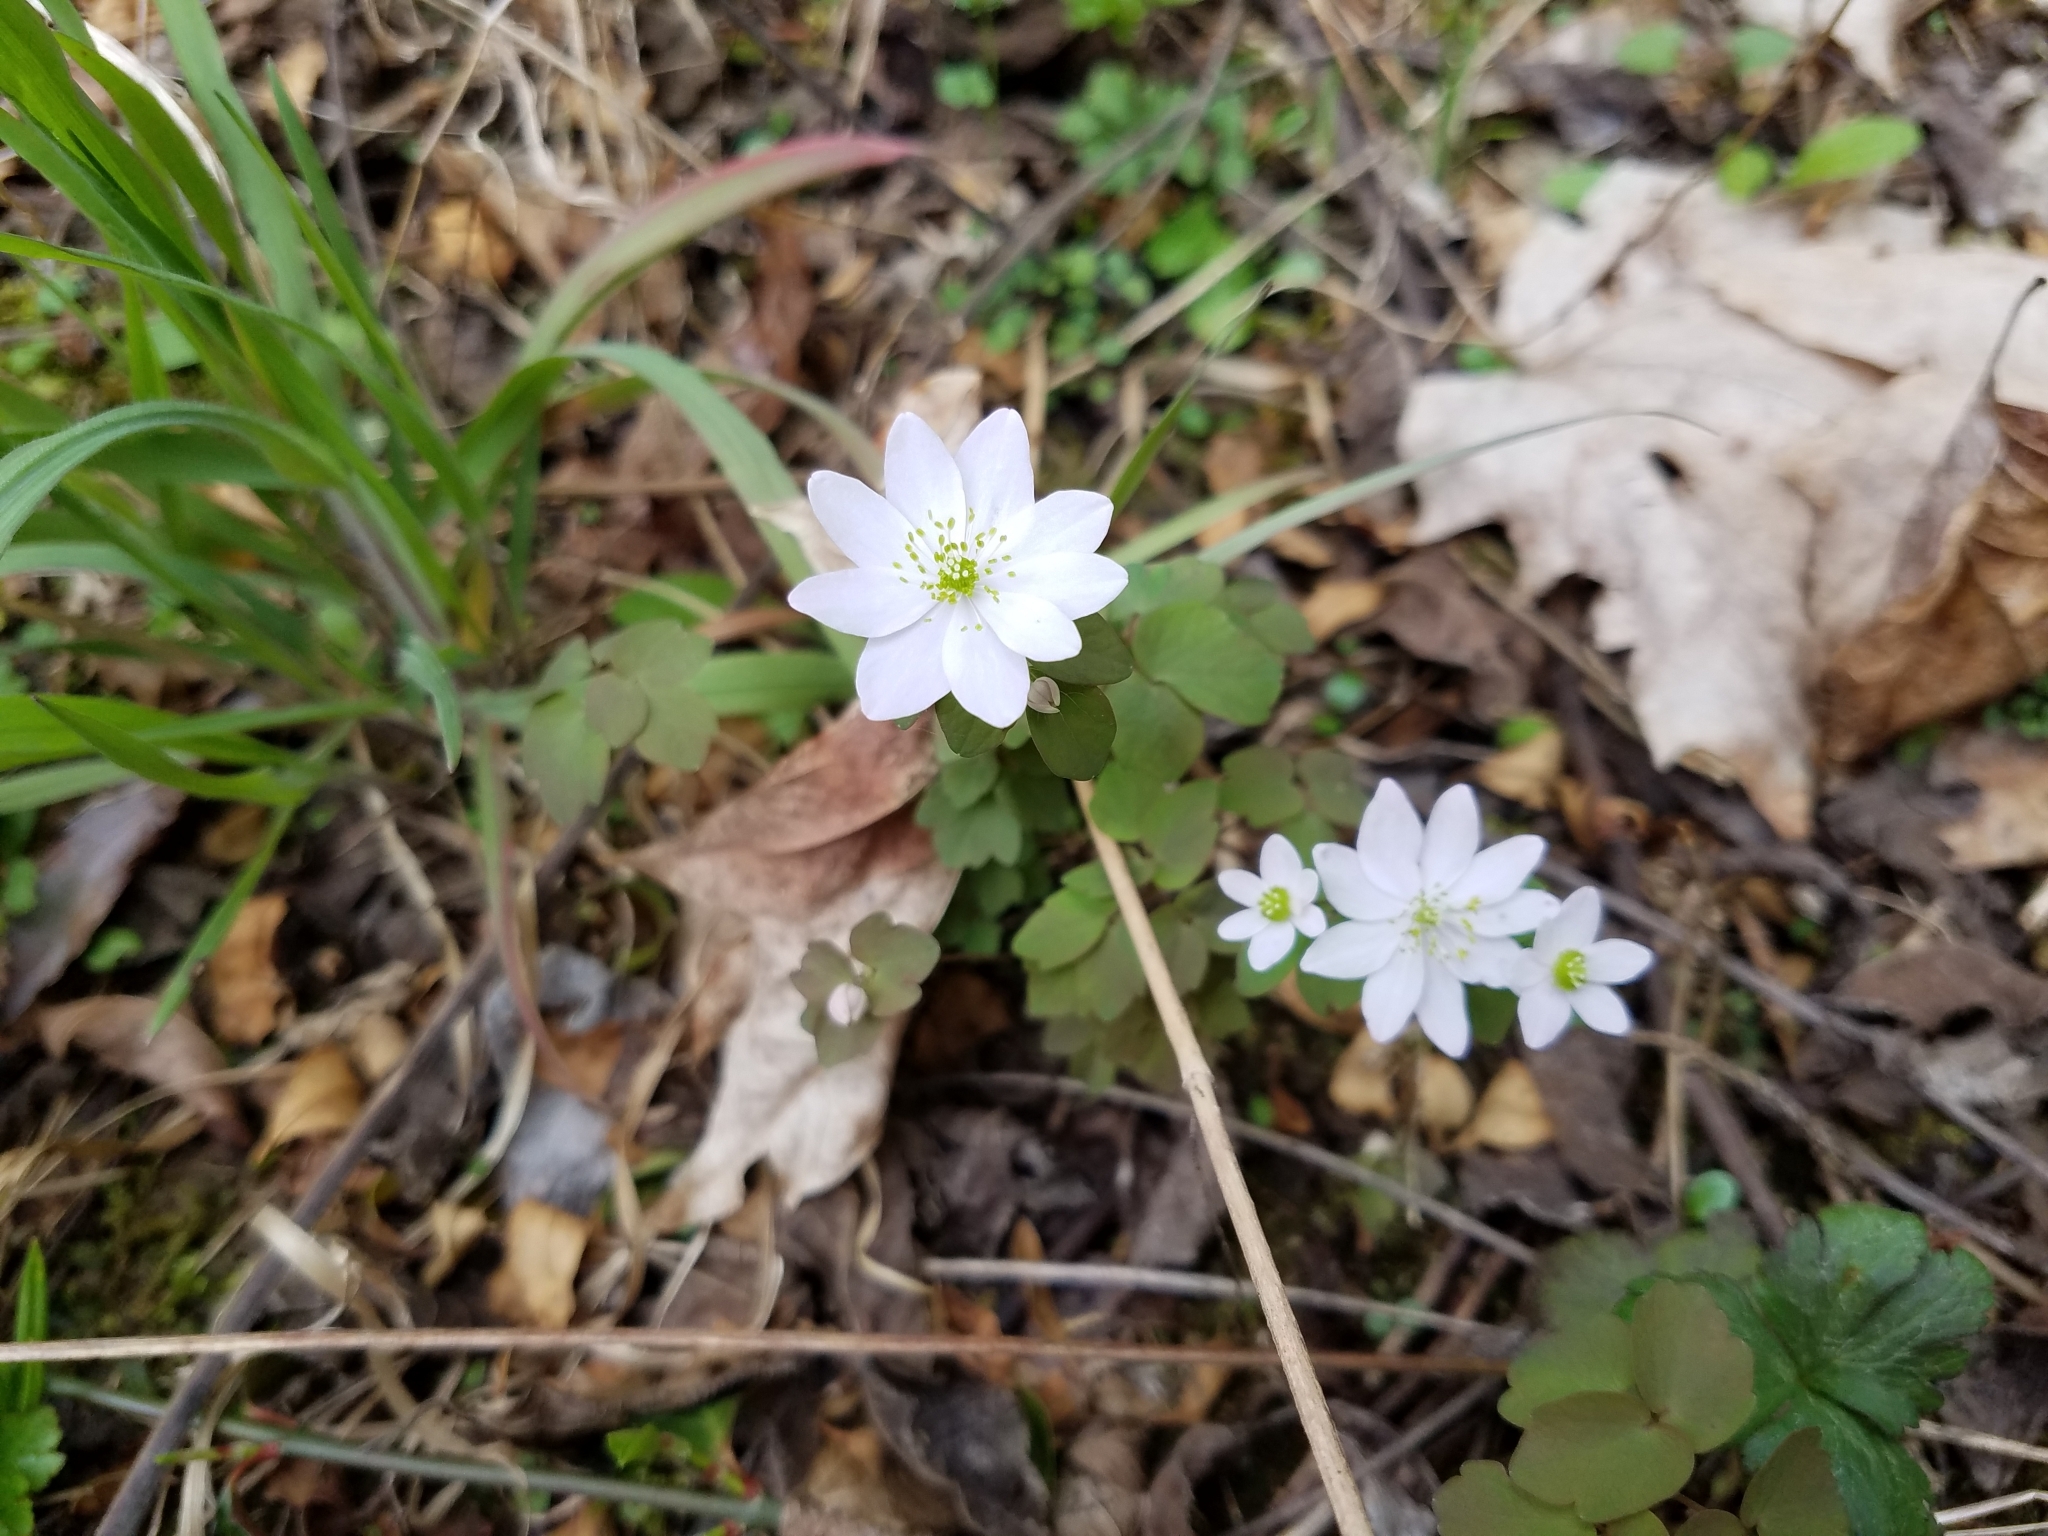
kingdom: Plantae
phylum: Tracheophyta
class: Magnoliopsida
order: Ranunculales
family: Ranunculaceae
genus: Thalictrum
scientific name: Thalictrum thalictroides
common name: Rue-anemone
